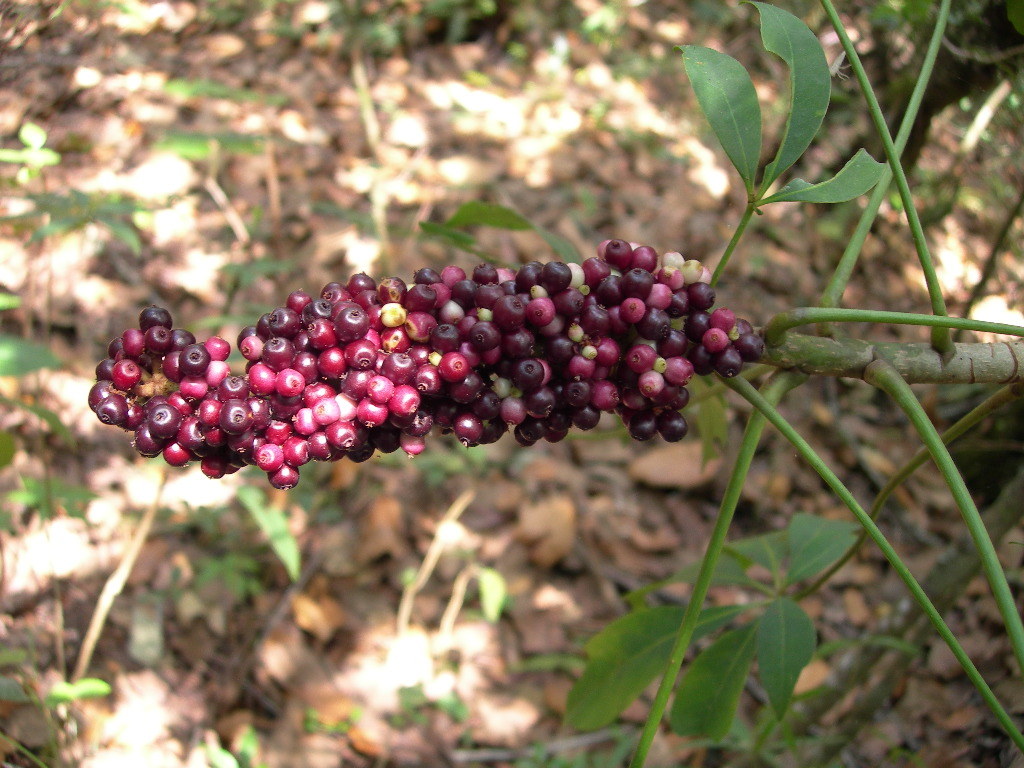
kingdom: Plantae
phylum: Tracheophyta
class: Magnoliopsida
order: Apiales
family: Araliaceae
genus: Oreopanax
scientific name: Oreopanax xalapensis
